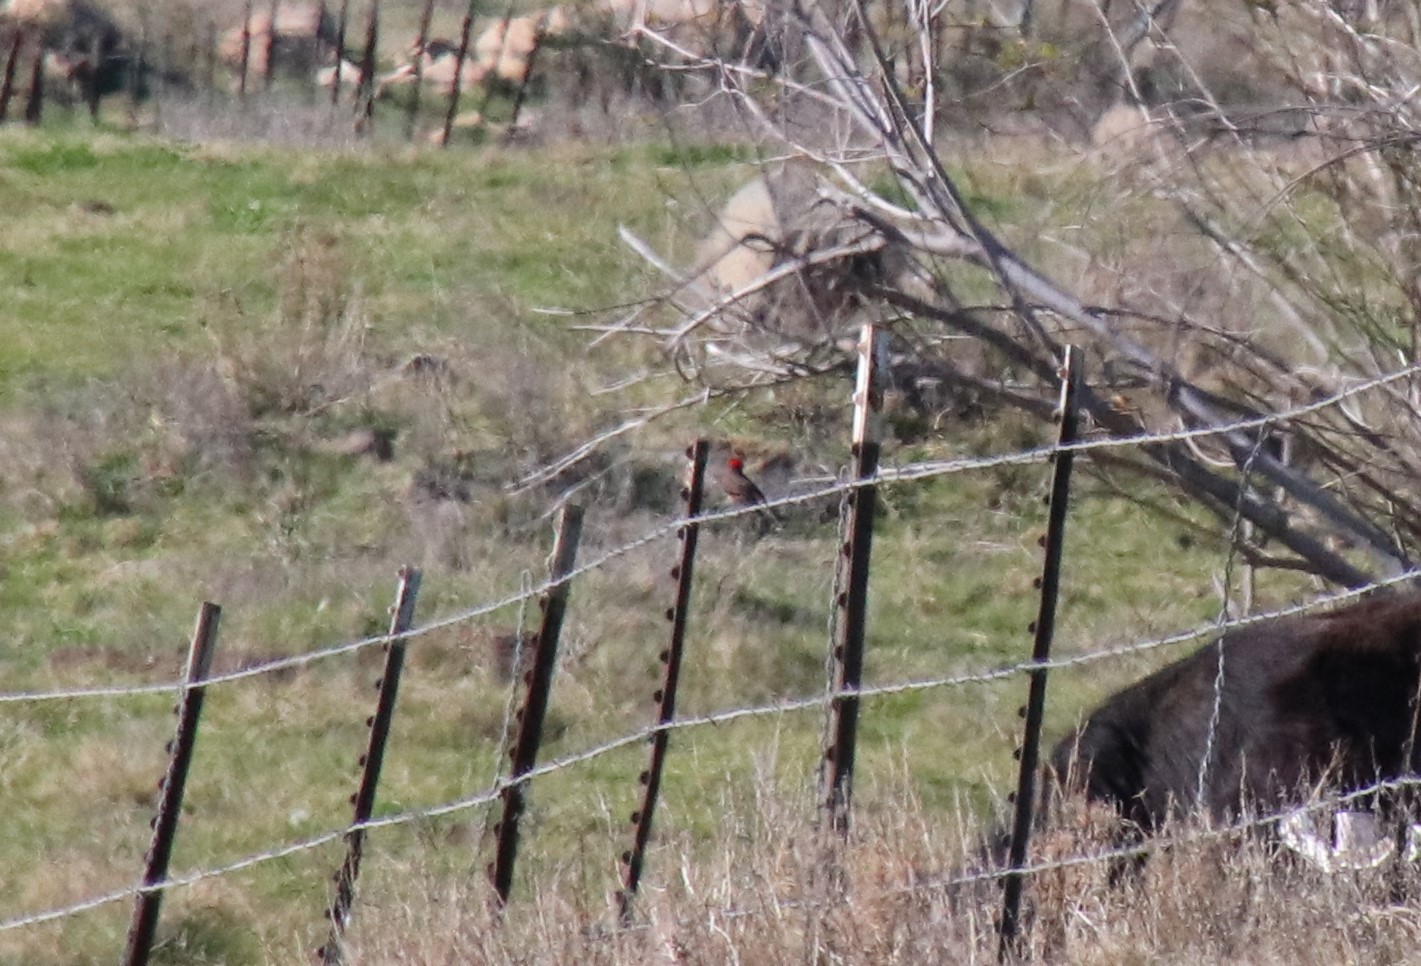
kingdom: Animalia
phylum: Chordata
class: Aves
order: Passeriformes
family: Tyrannidae
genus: Pyrocephalus
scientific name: Pyrocephalus rubinus
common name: Vermilion flycatcher
